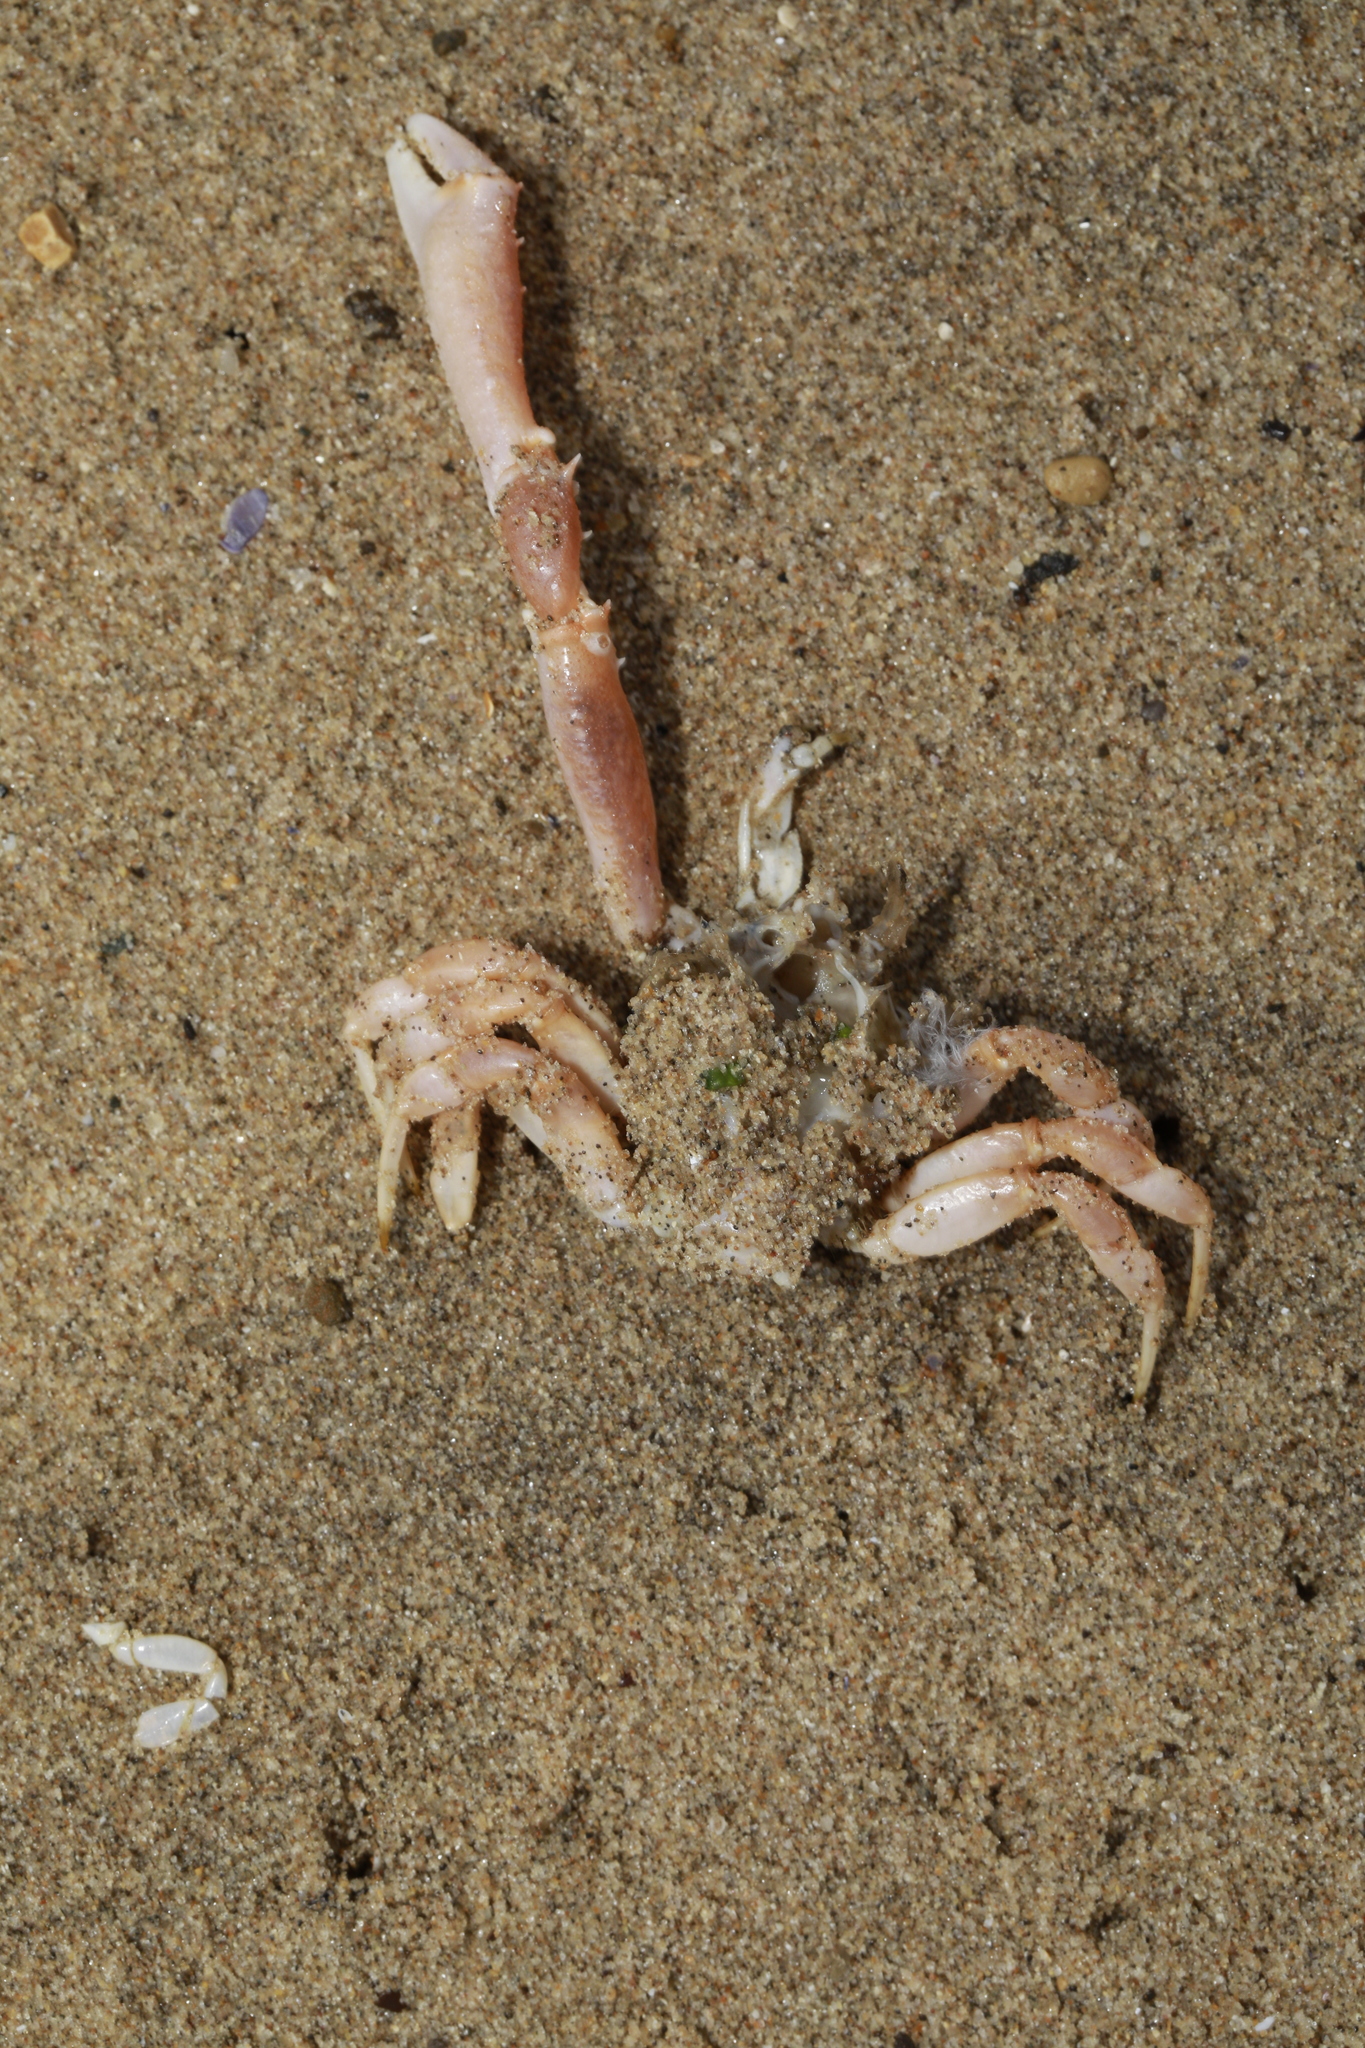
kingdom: Animalia
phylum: Arthropoda
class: Malacostraca
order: Decapoda
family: Corystidae
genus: Corystes
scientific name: Corystes cassivelaunus
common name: Masked crab
